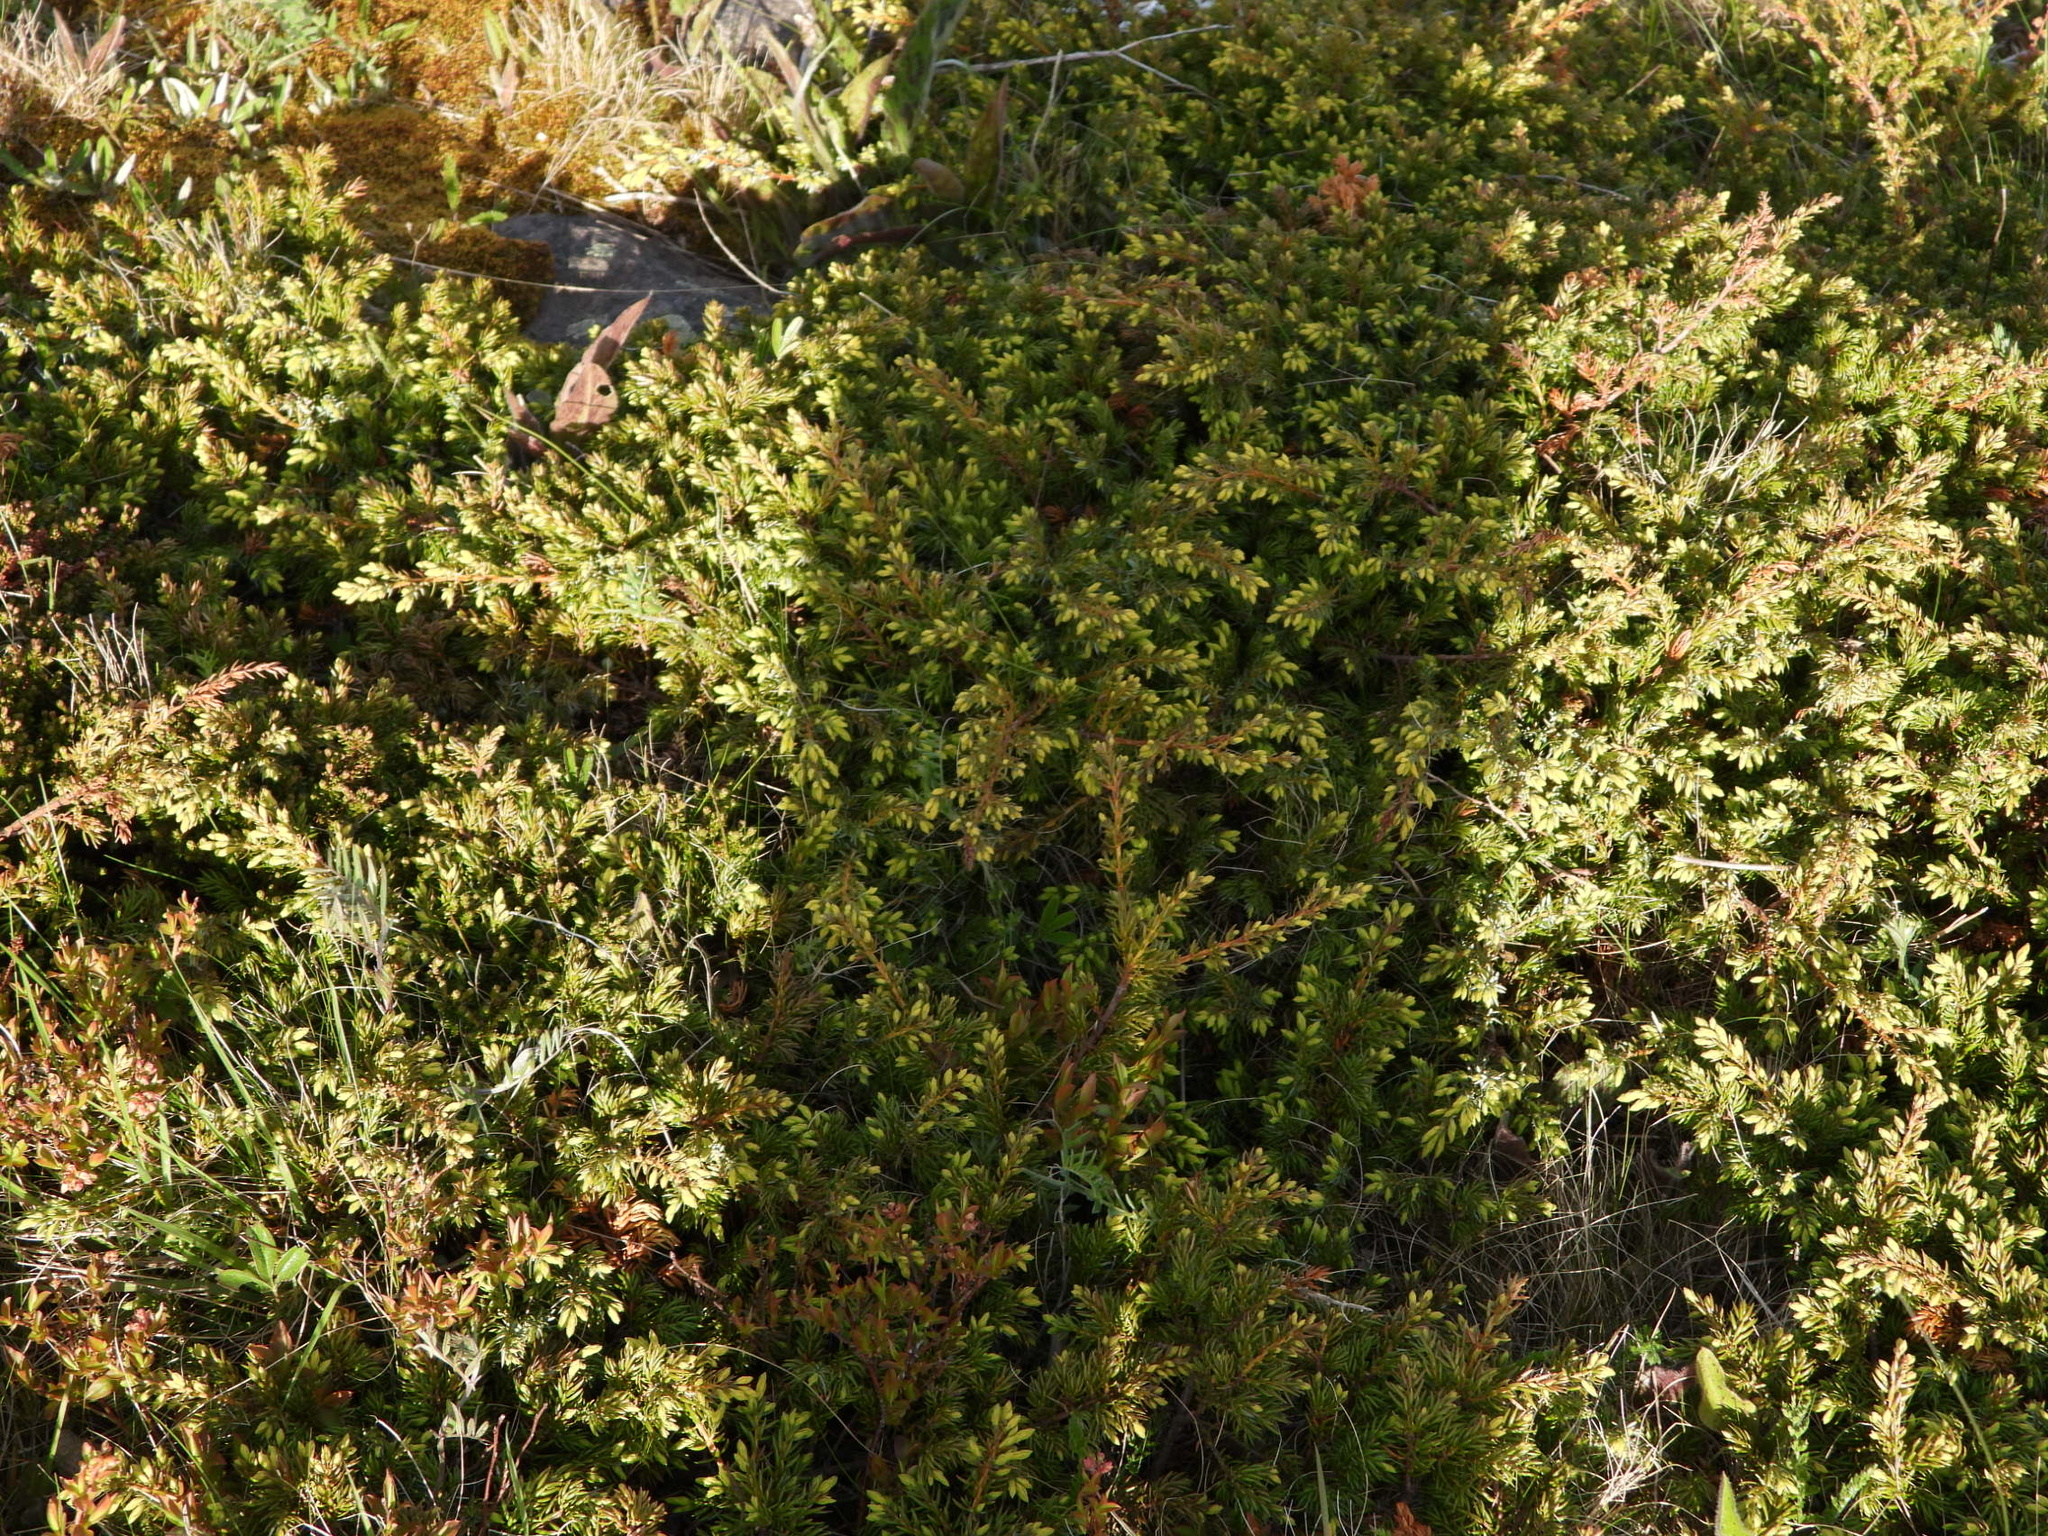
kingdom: Plantae
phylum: Tracheophyta
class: Pinopsida
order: Pinales
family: Cupressaceae
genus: Juniperus
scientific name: Juniperus communis
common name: Common juniper
